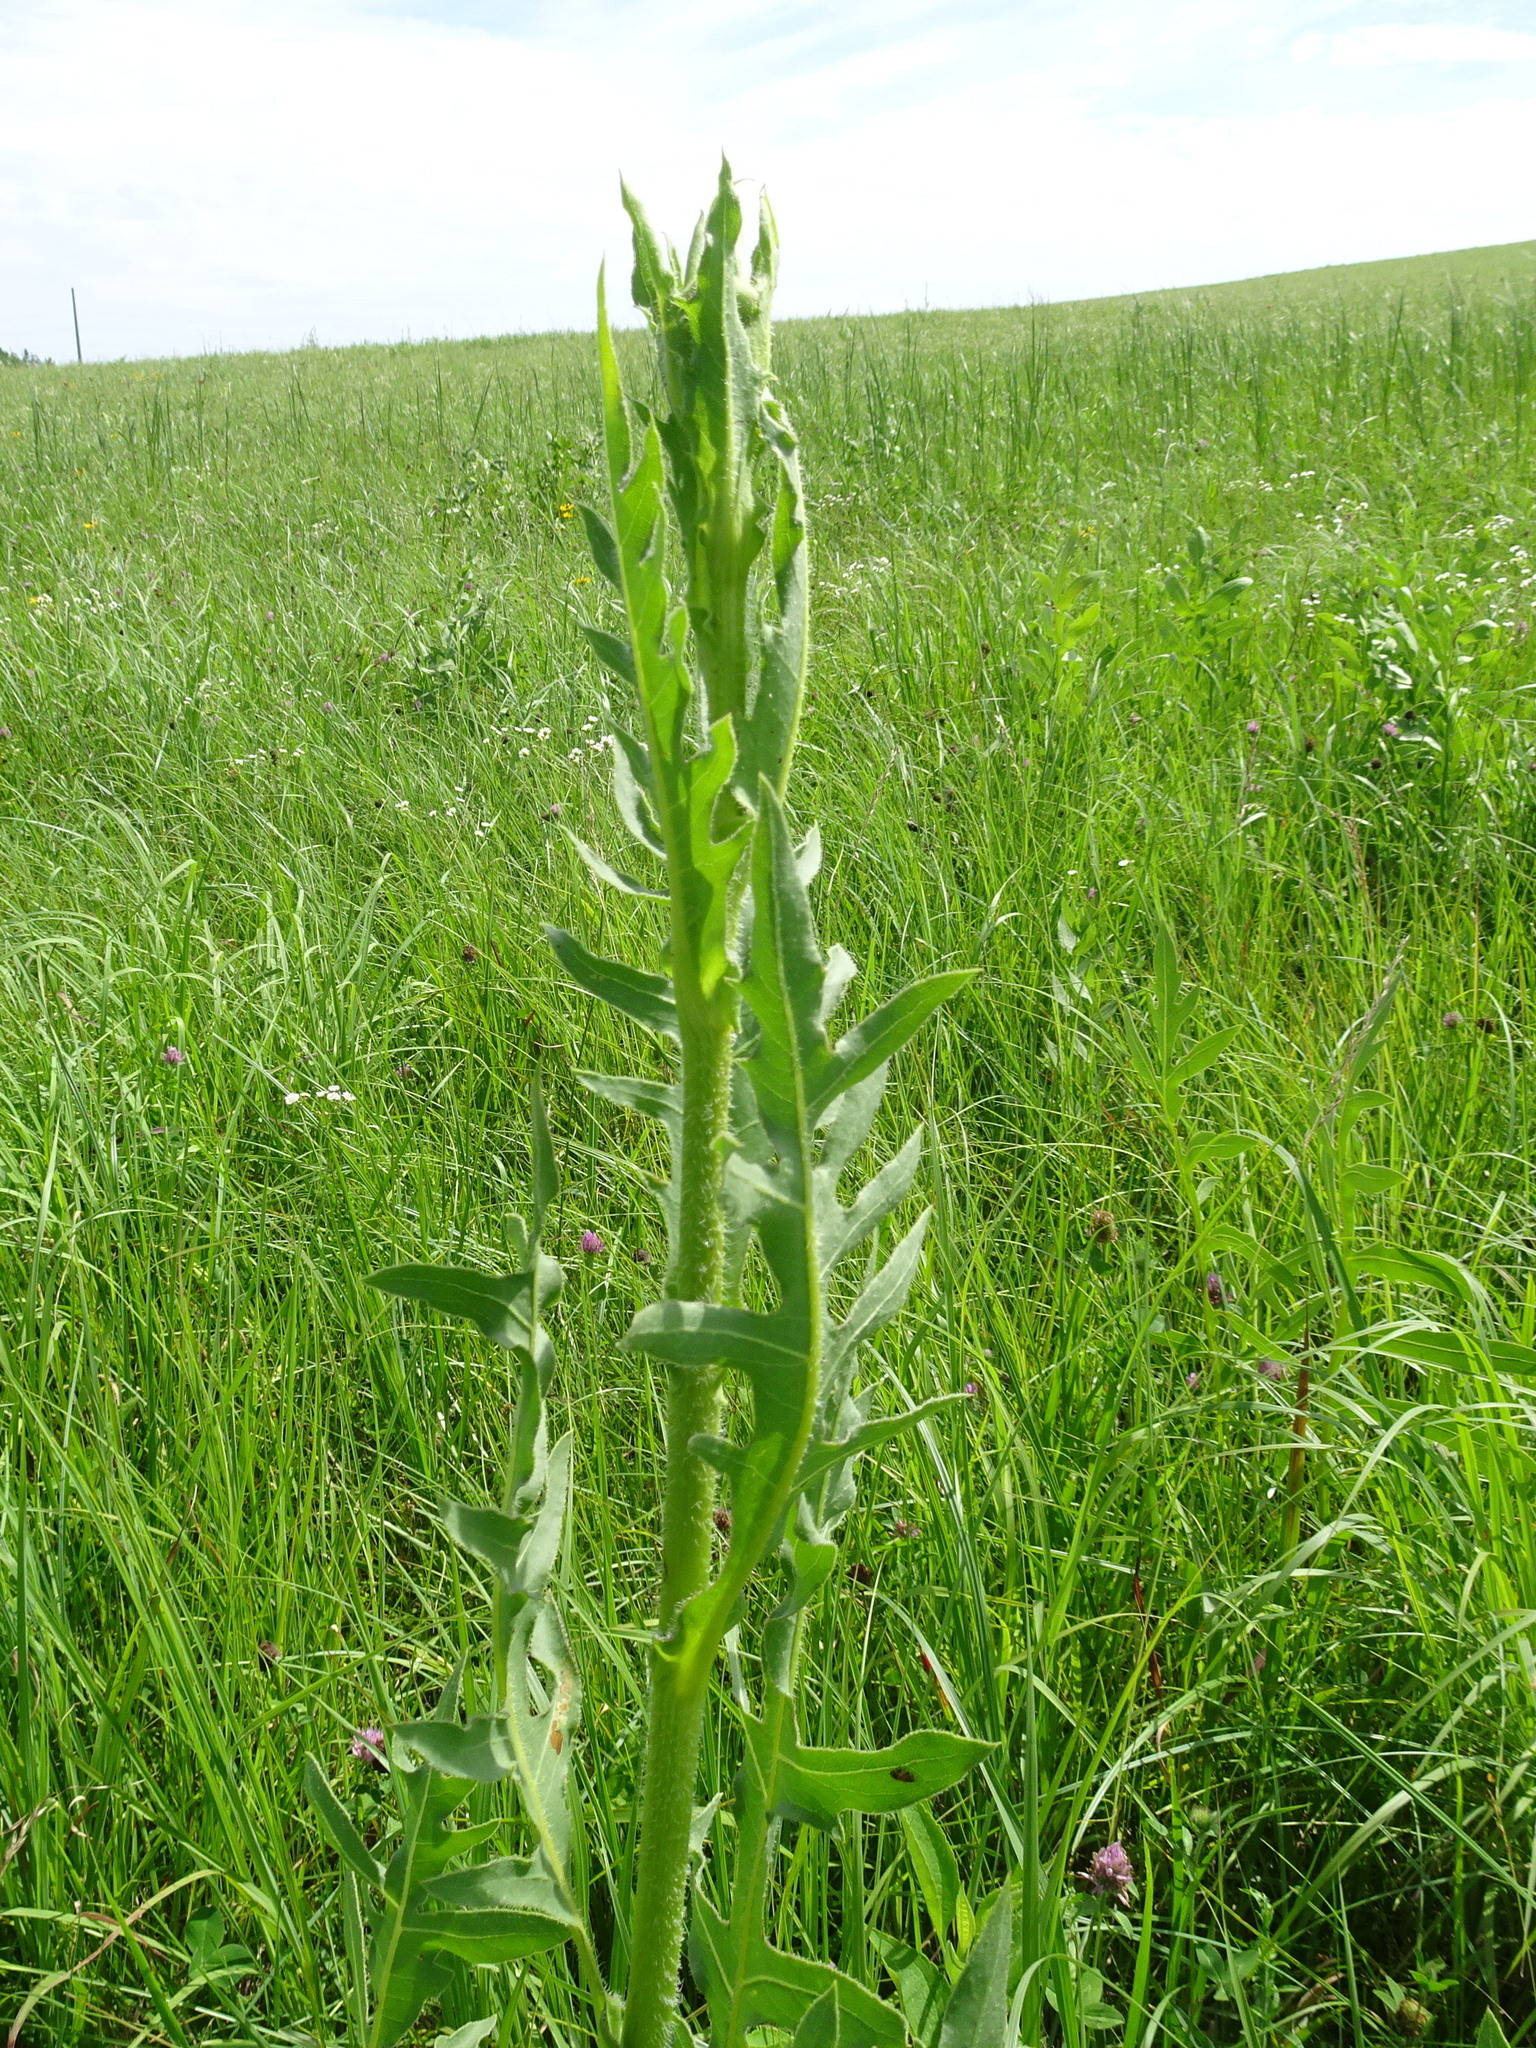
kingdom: Plantae
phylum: Tracheophyta
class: Magnoliopsida
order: Asterales
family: Asteraceae
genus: Silphium
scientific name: Silphium laciniatum
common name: Polarplant
